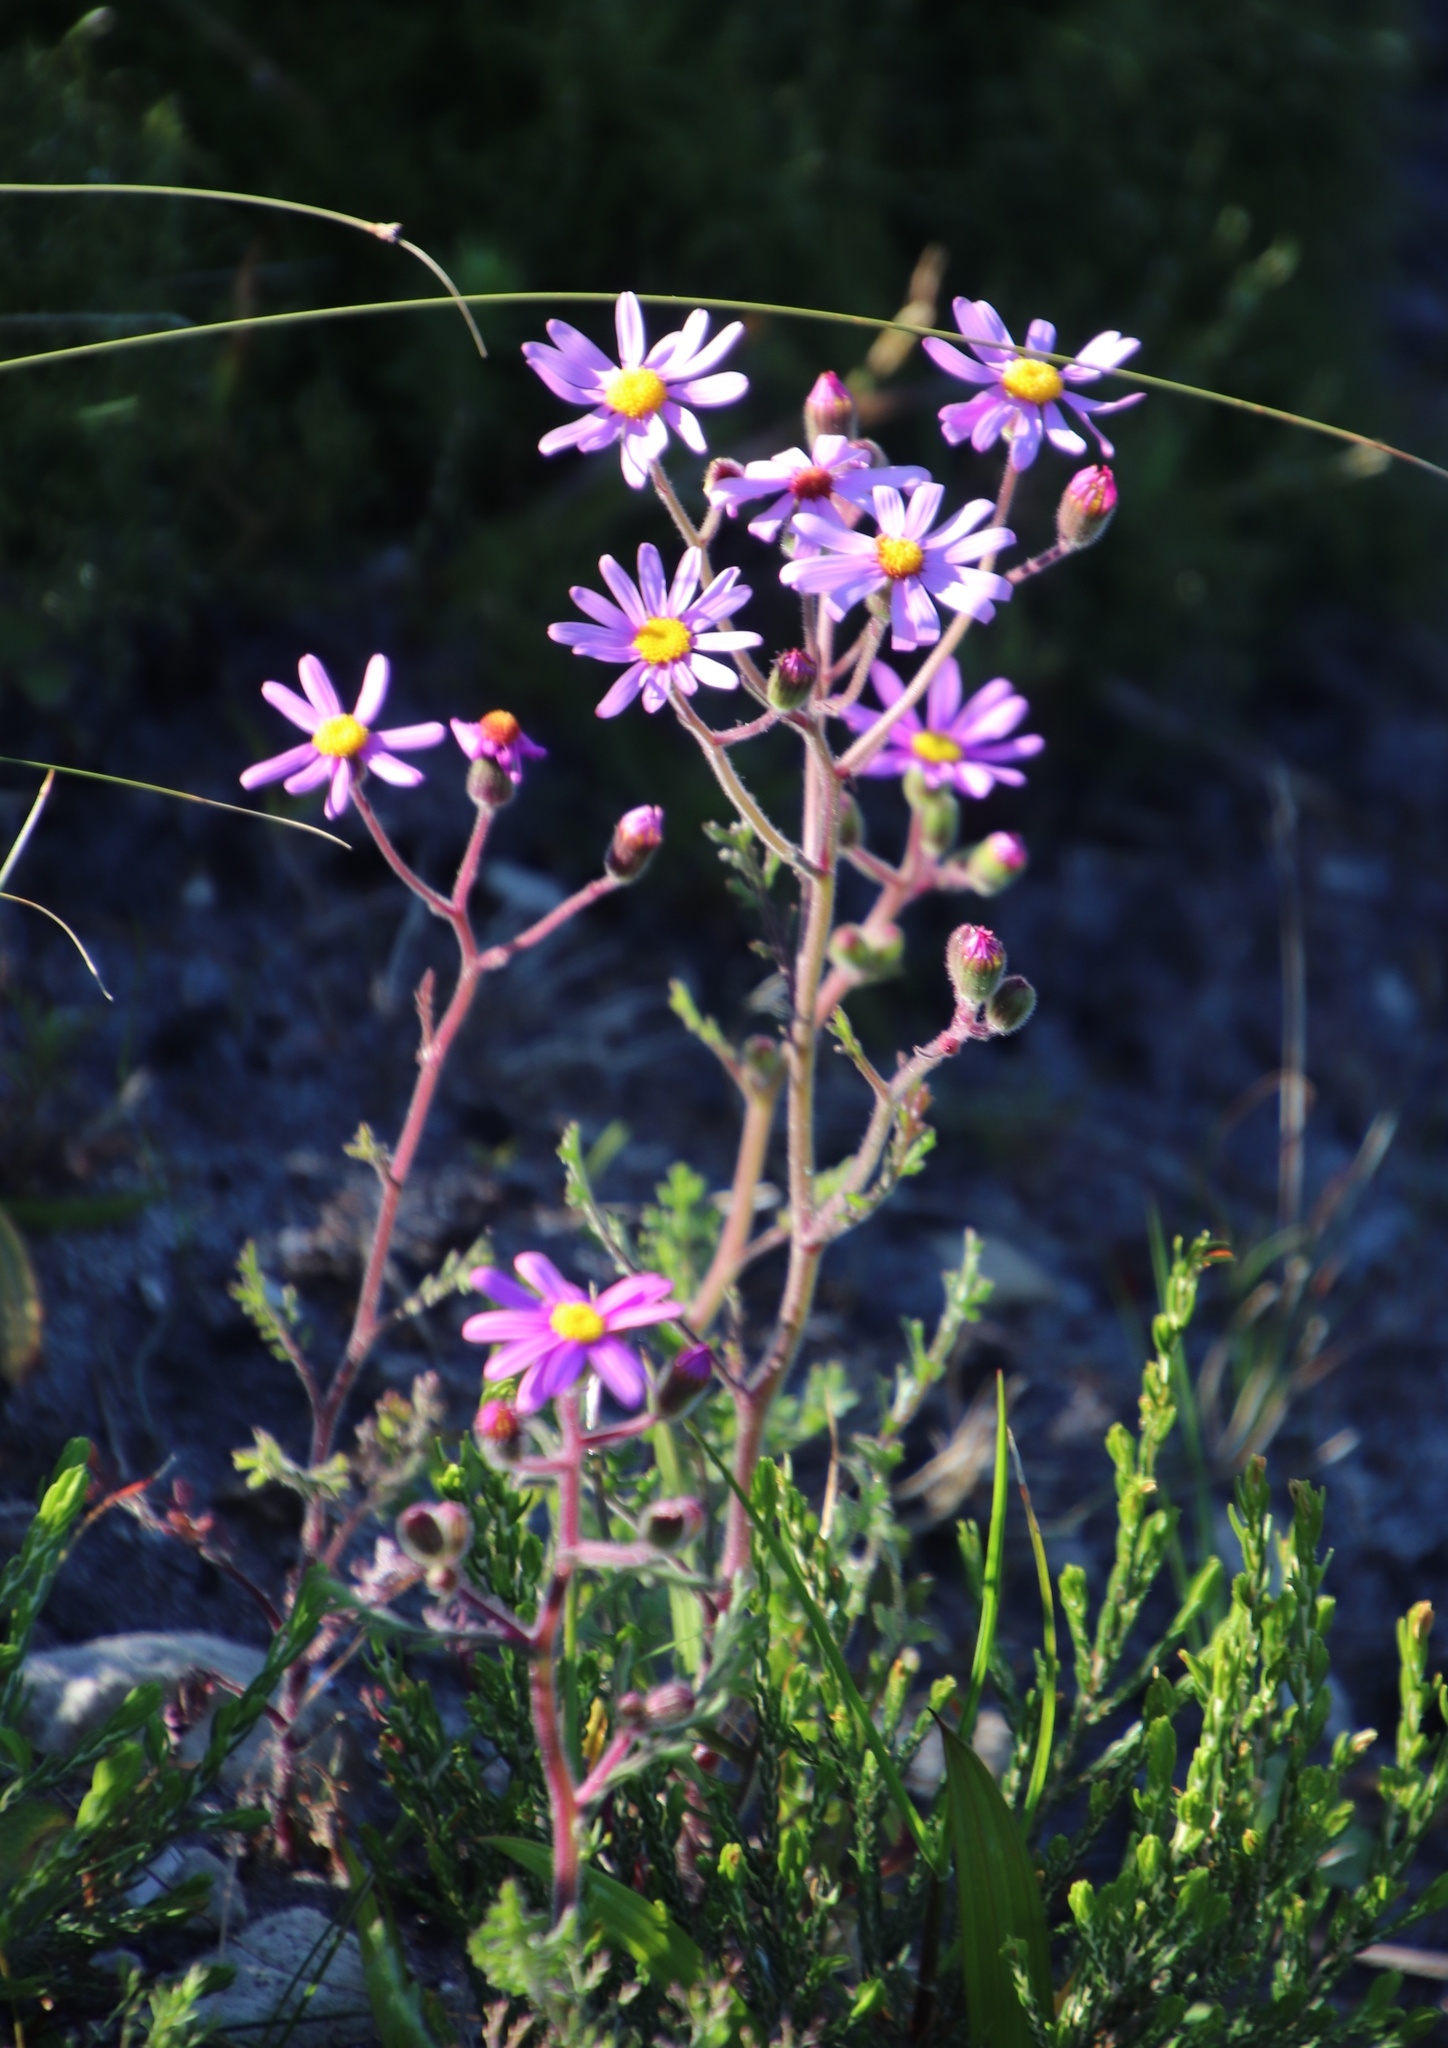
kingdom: Plantae
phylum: Tracheophyta
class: Magnoliopsida
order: Asterales
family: Asteraceae
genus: Senecio
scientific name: Senecio arenarius
